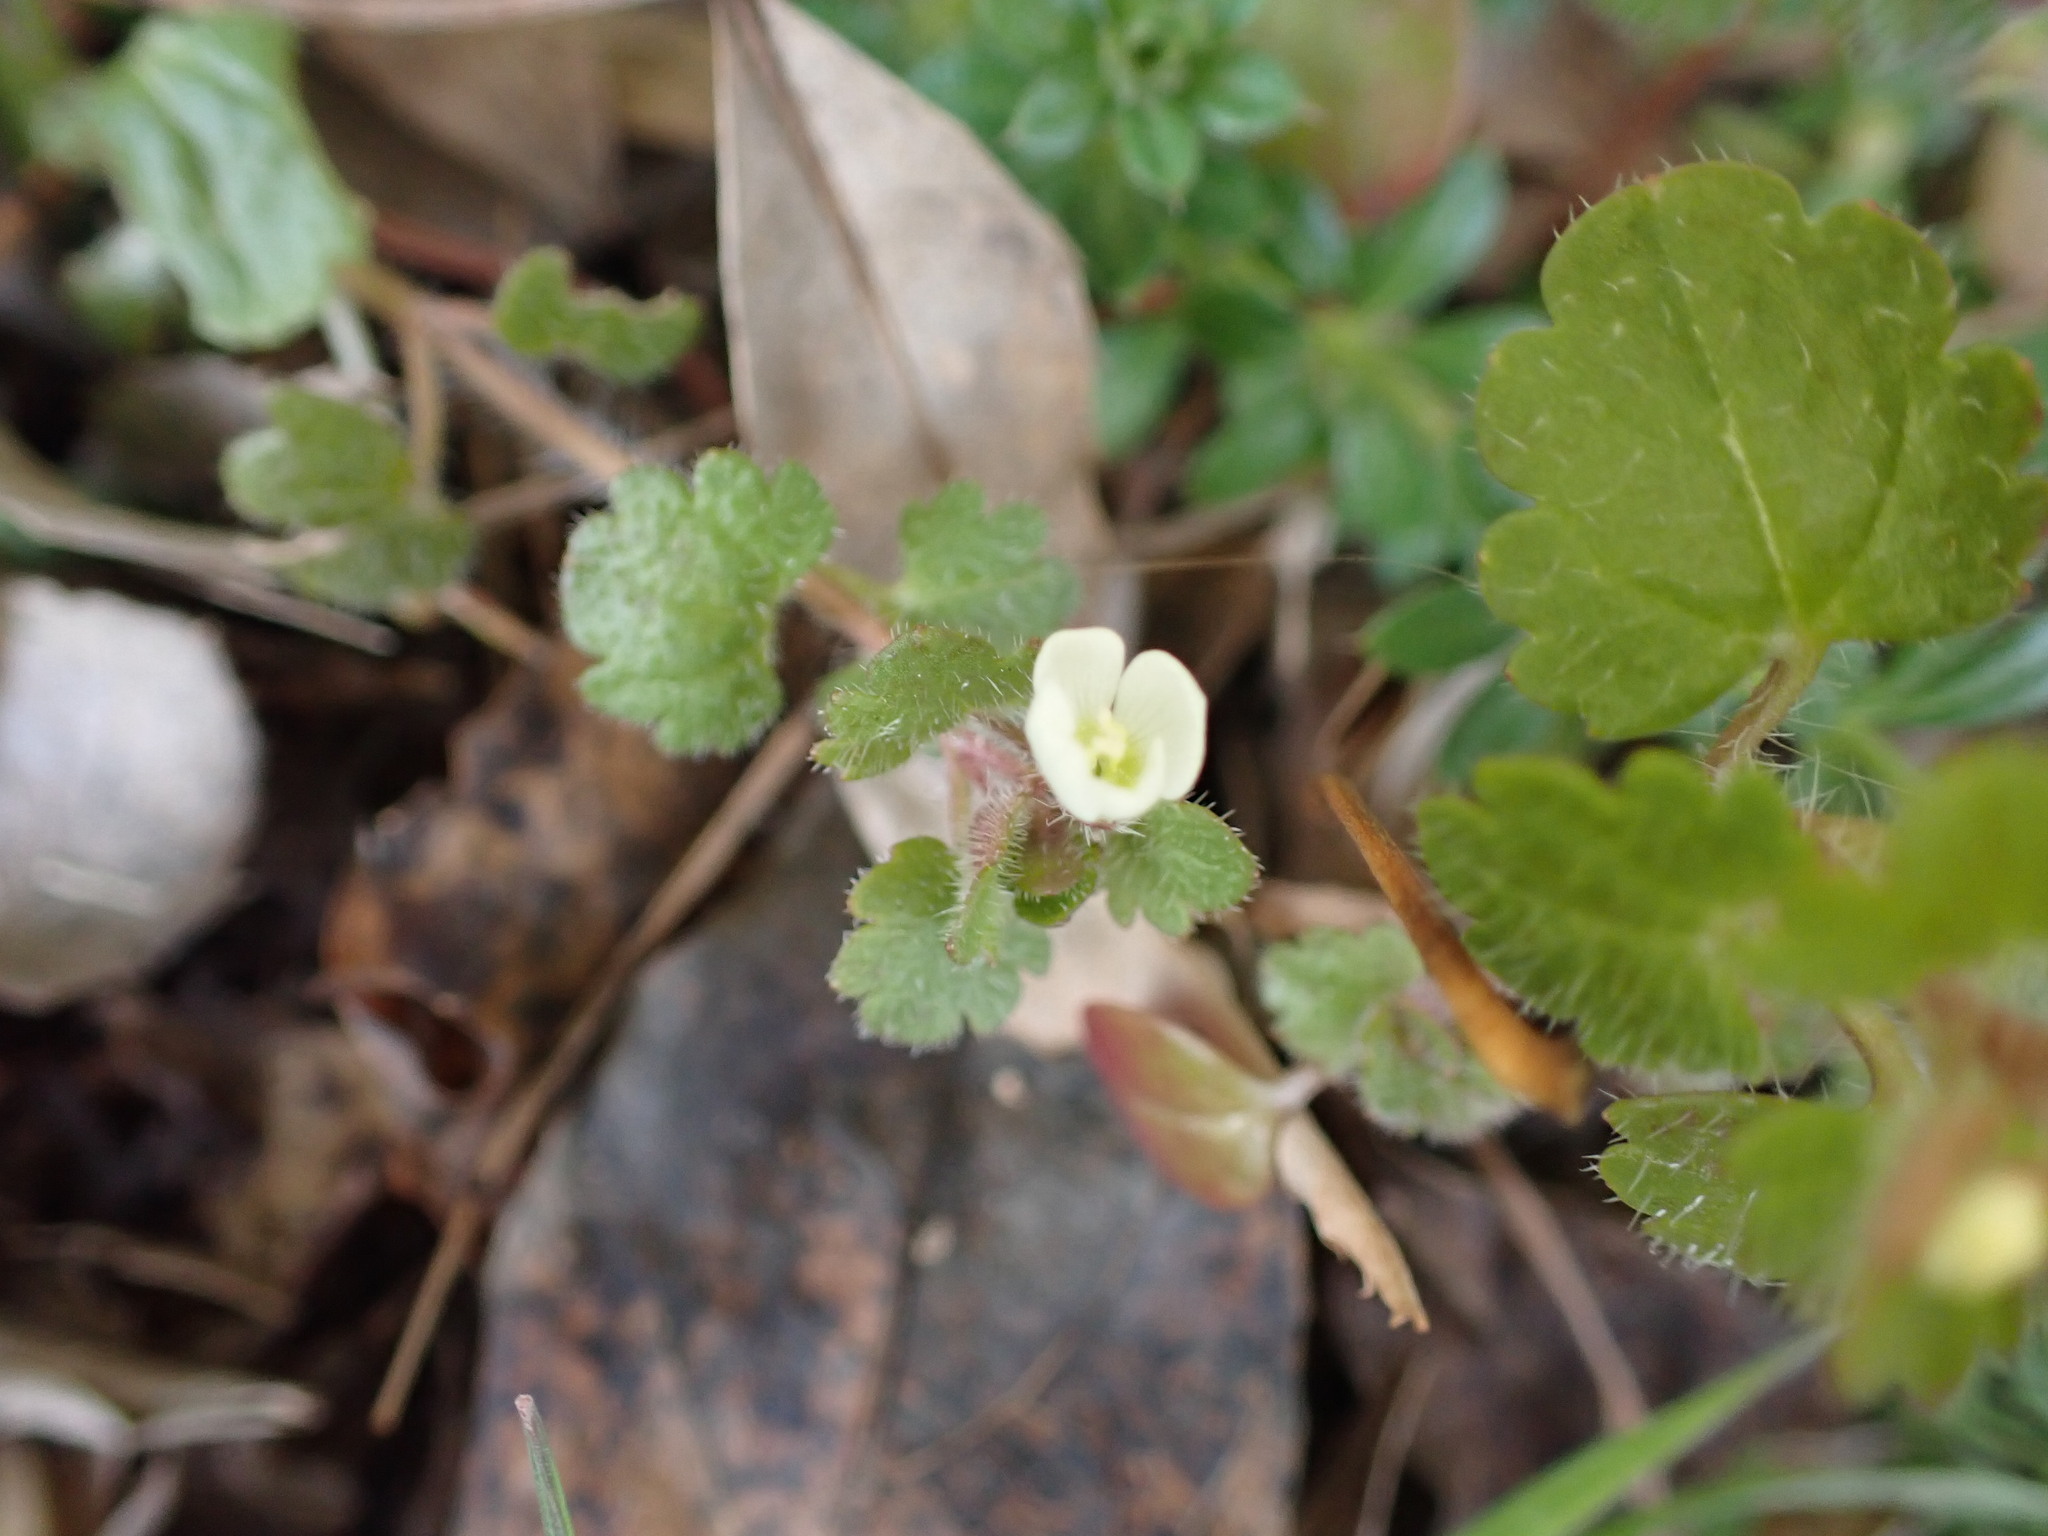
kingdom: Plantae
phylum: Tracheophyta
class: Magnoliopsida
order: Lamiales
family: Plantaginaceae
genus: Veronica
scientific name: Veronica cymbalaria
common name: Pale speedwell
